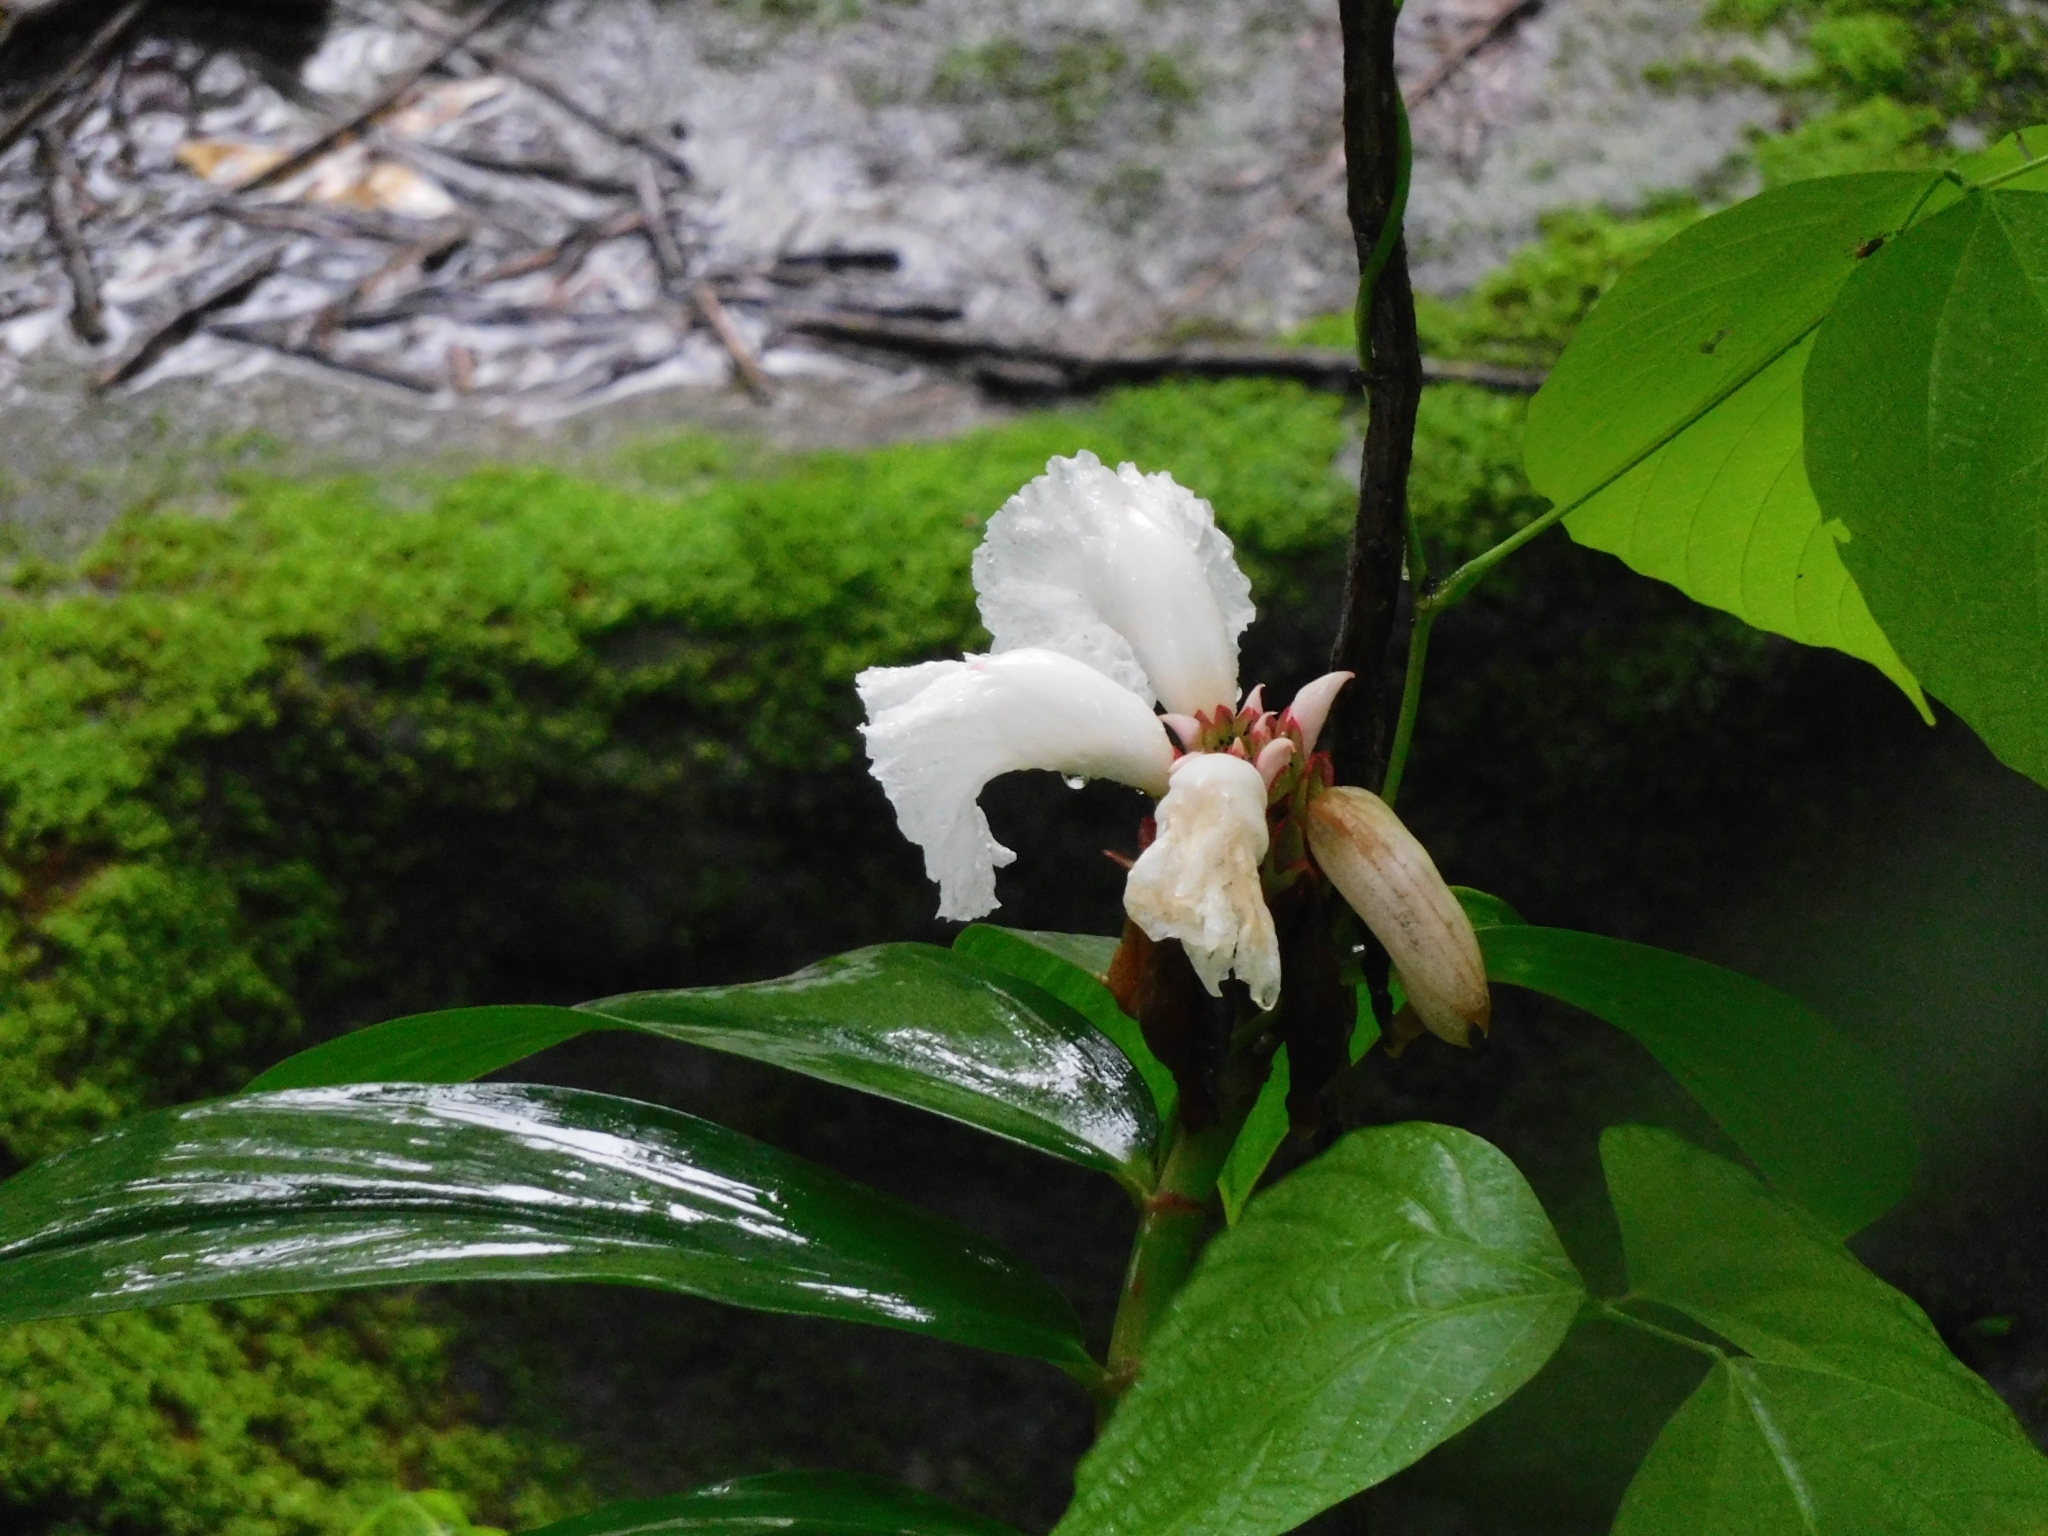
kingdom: Plantae
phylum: Tracheophyta
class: Liliopsida
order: Zingiberales
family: Costaceae
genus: Hellenia
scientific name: Hellenia speciosa
